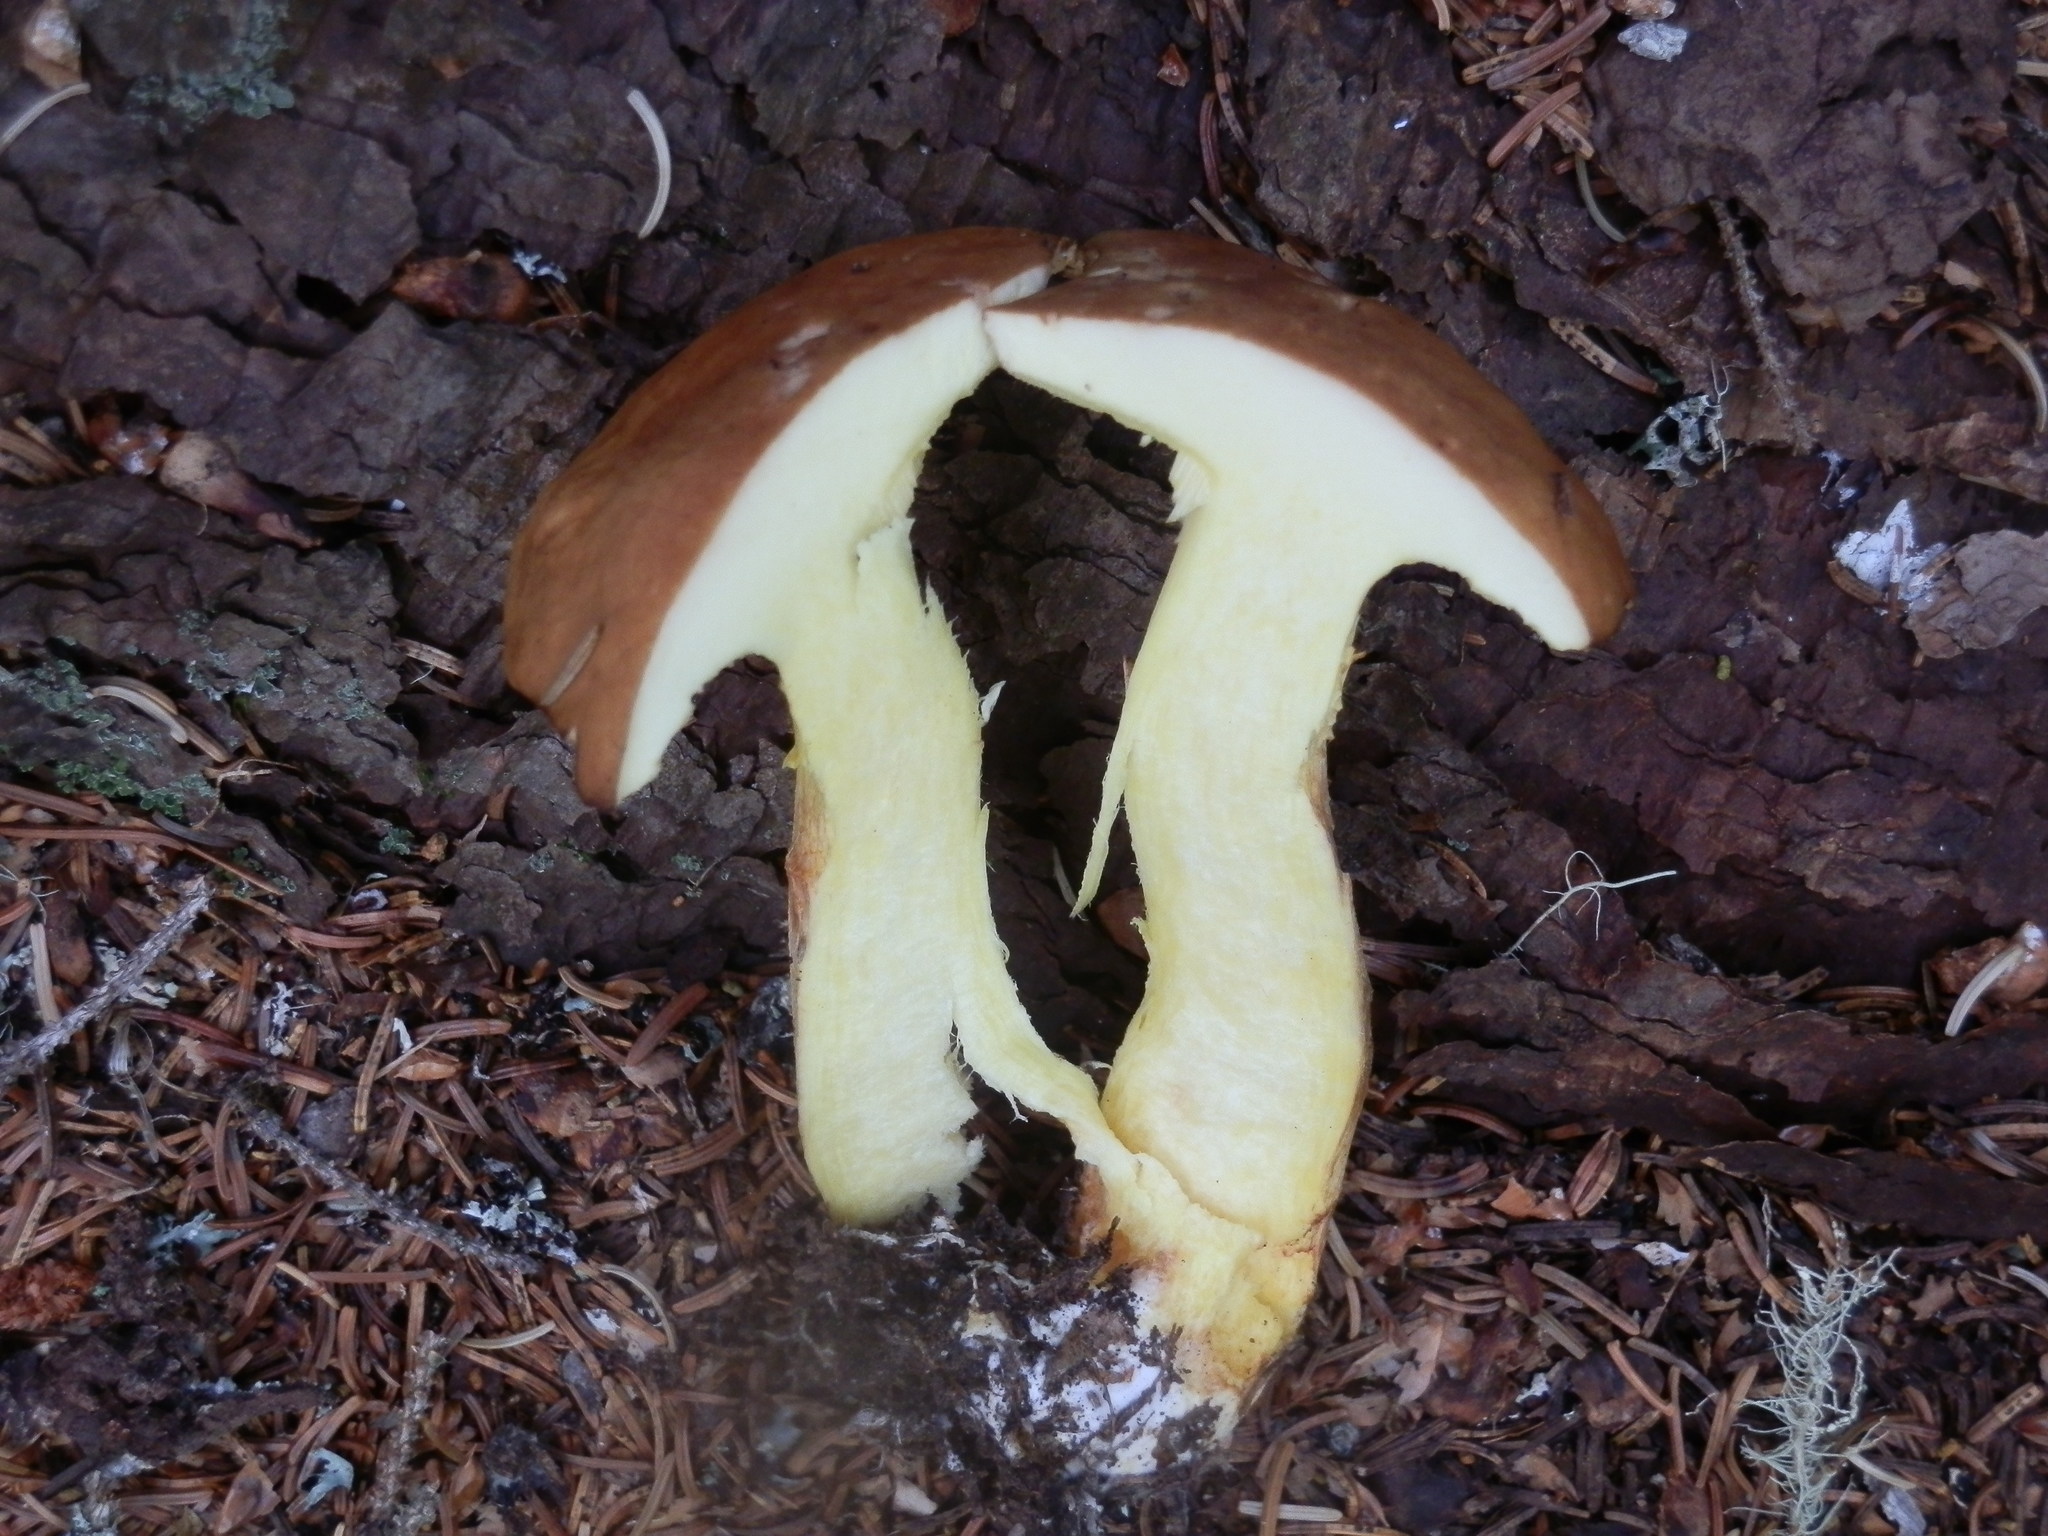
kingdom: Fungi
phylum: Basidiomycota
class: Agaricomycetes
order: Boletales
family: Boletaceae
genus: Hemileccinum
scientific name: Hemileccinum subglabripes
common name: Smoothish-stemmed bolete
